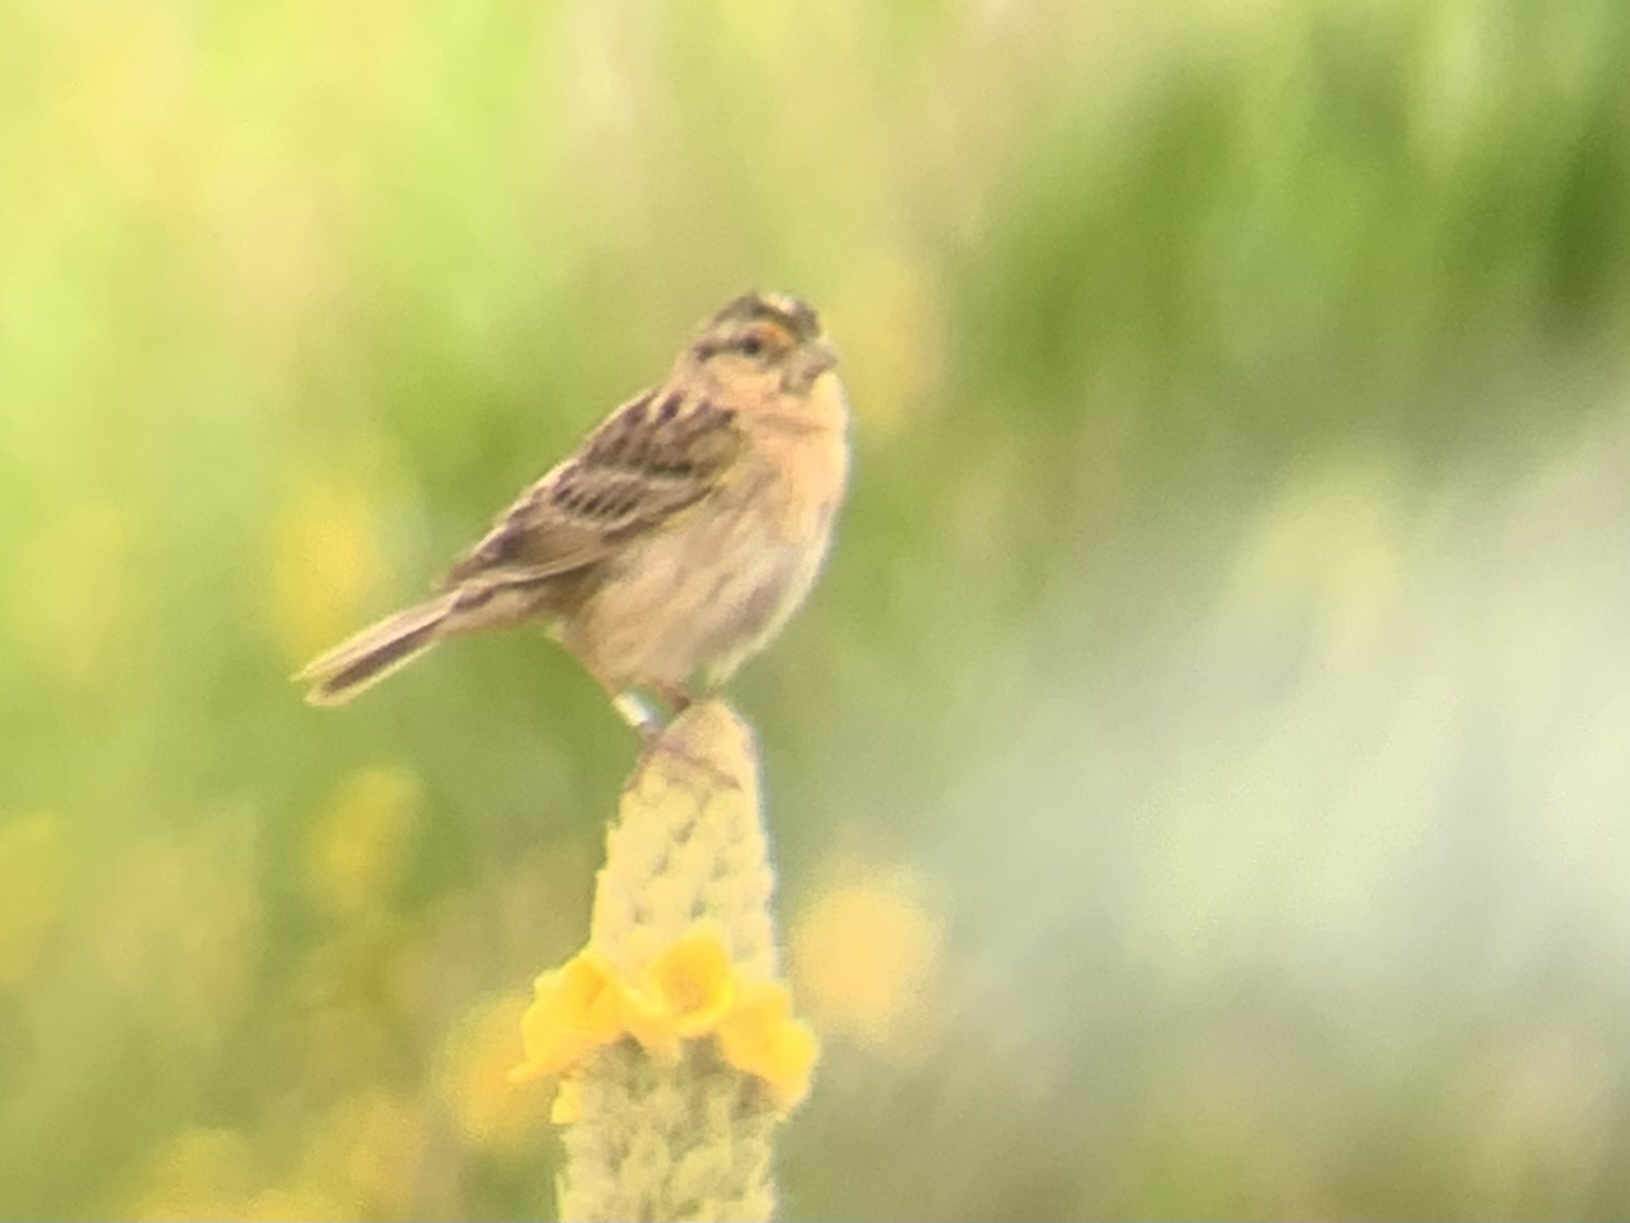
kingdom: Animalia
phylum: Chordata
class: Aves
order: Passeriformes
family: Passerellidae
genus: Ammodramus
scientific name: Ammodramus savannarum
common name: Grasshopper sparrow
